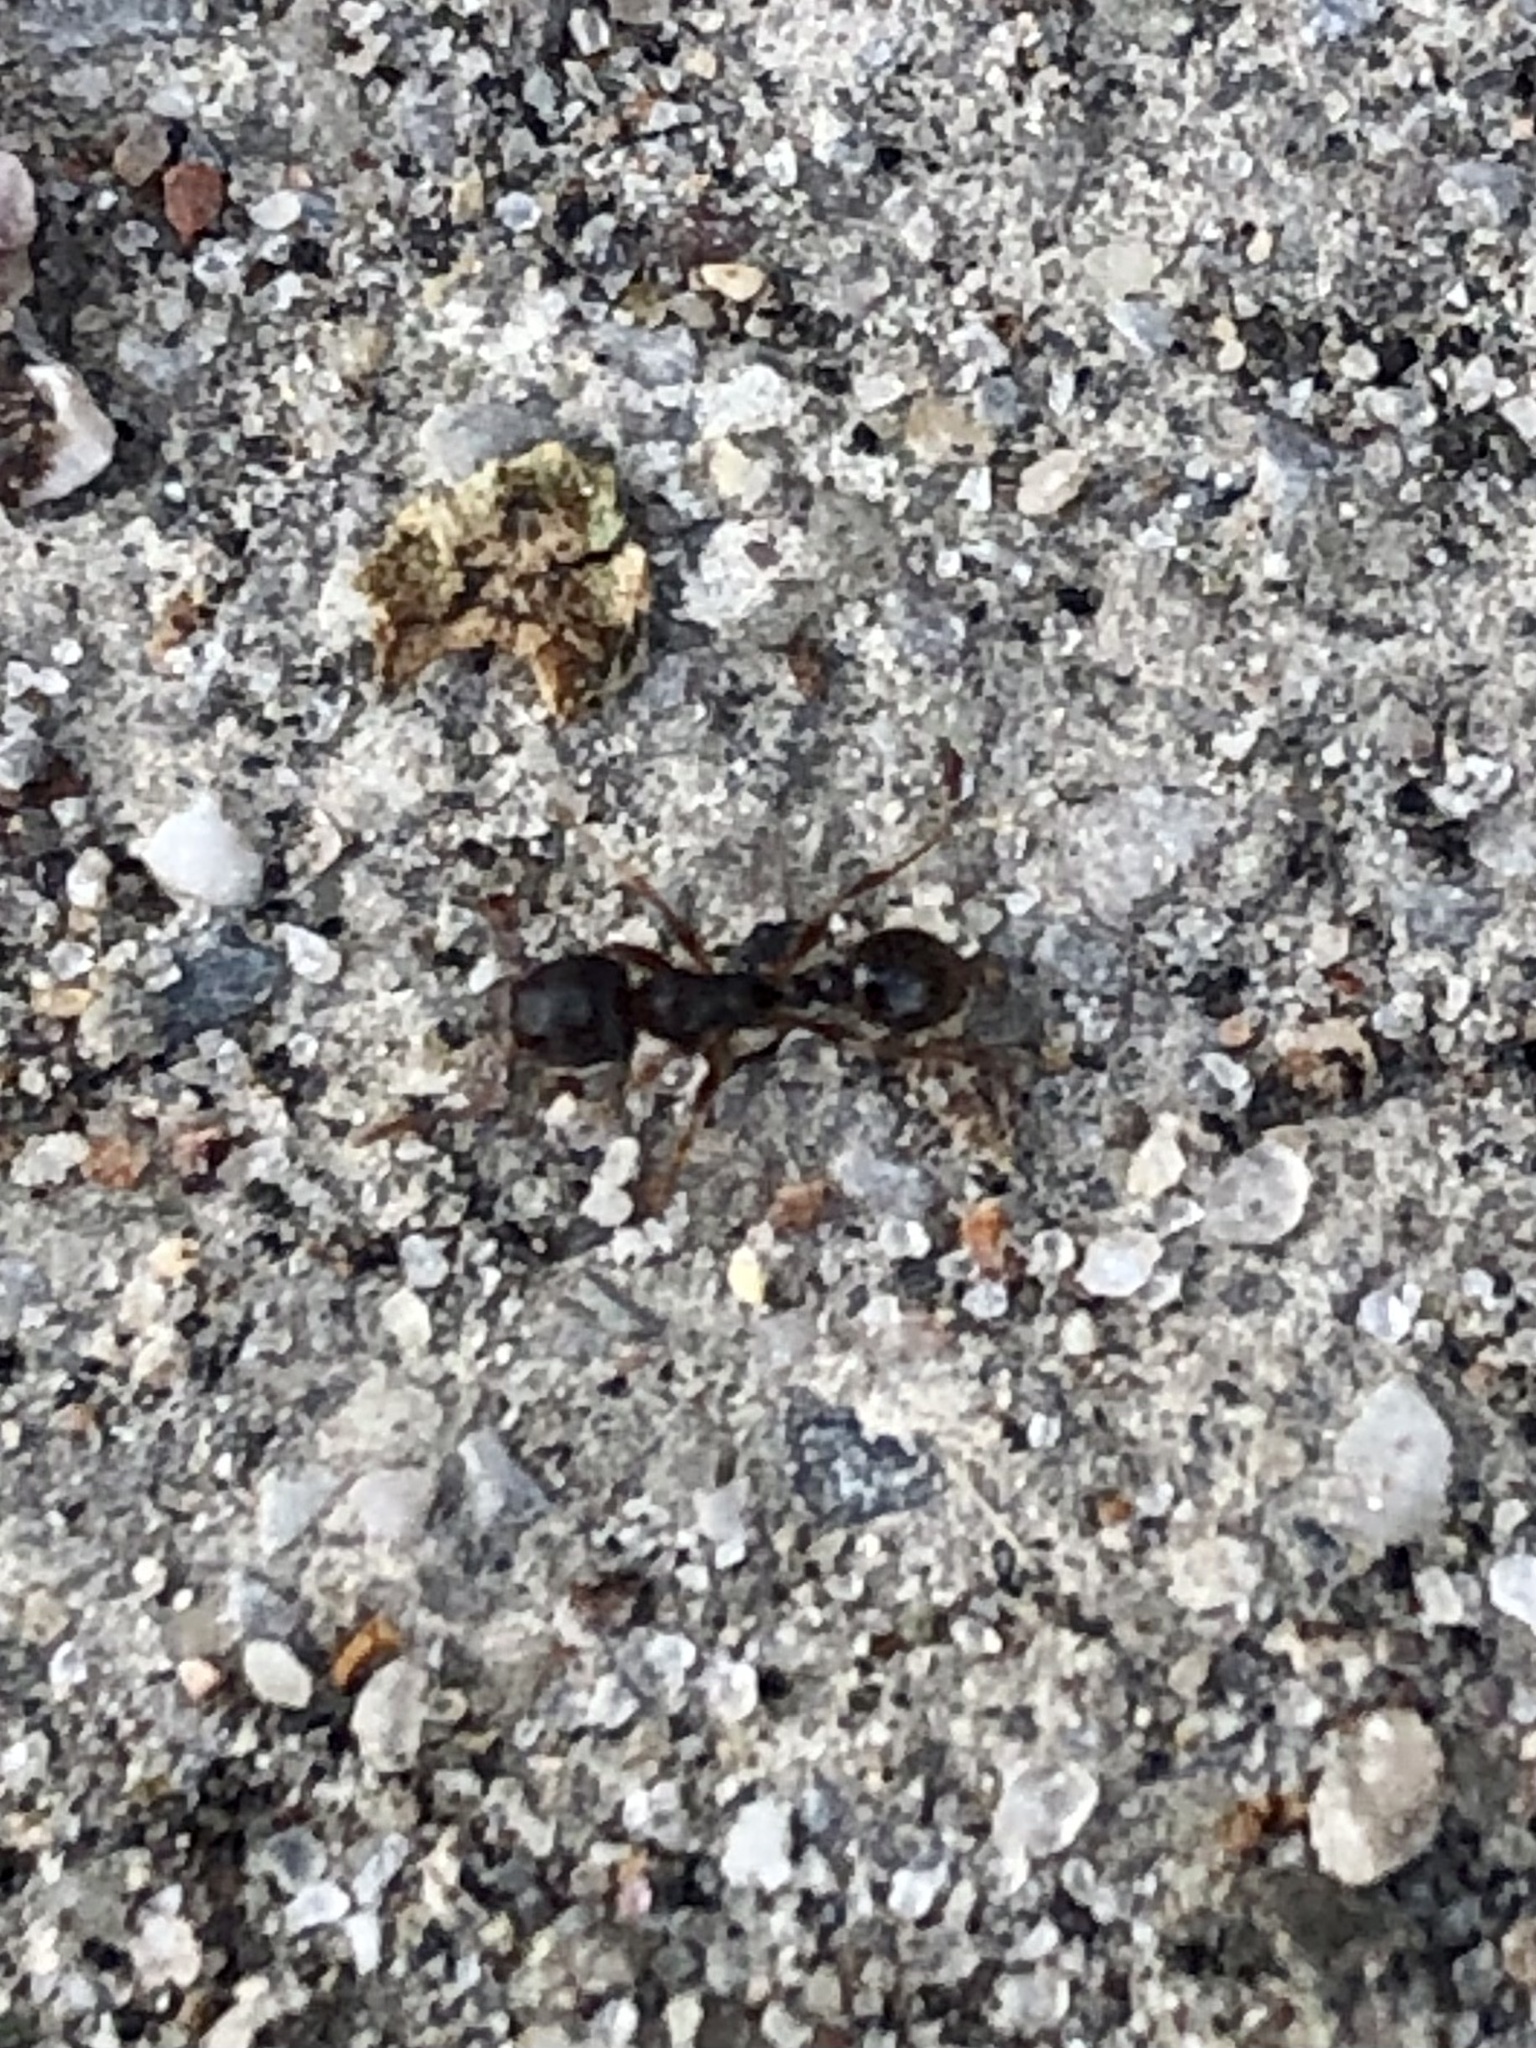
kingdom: Animalia
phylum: Arthropoda
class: Insecta
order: Hymenoptera
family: Formicidae
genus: Tetramorium
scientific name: Tetramorium immigrans
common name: Pavement ant
